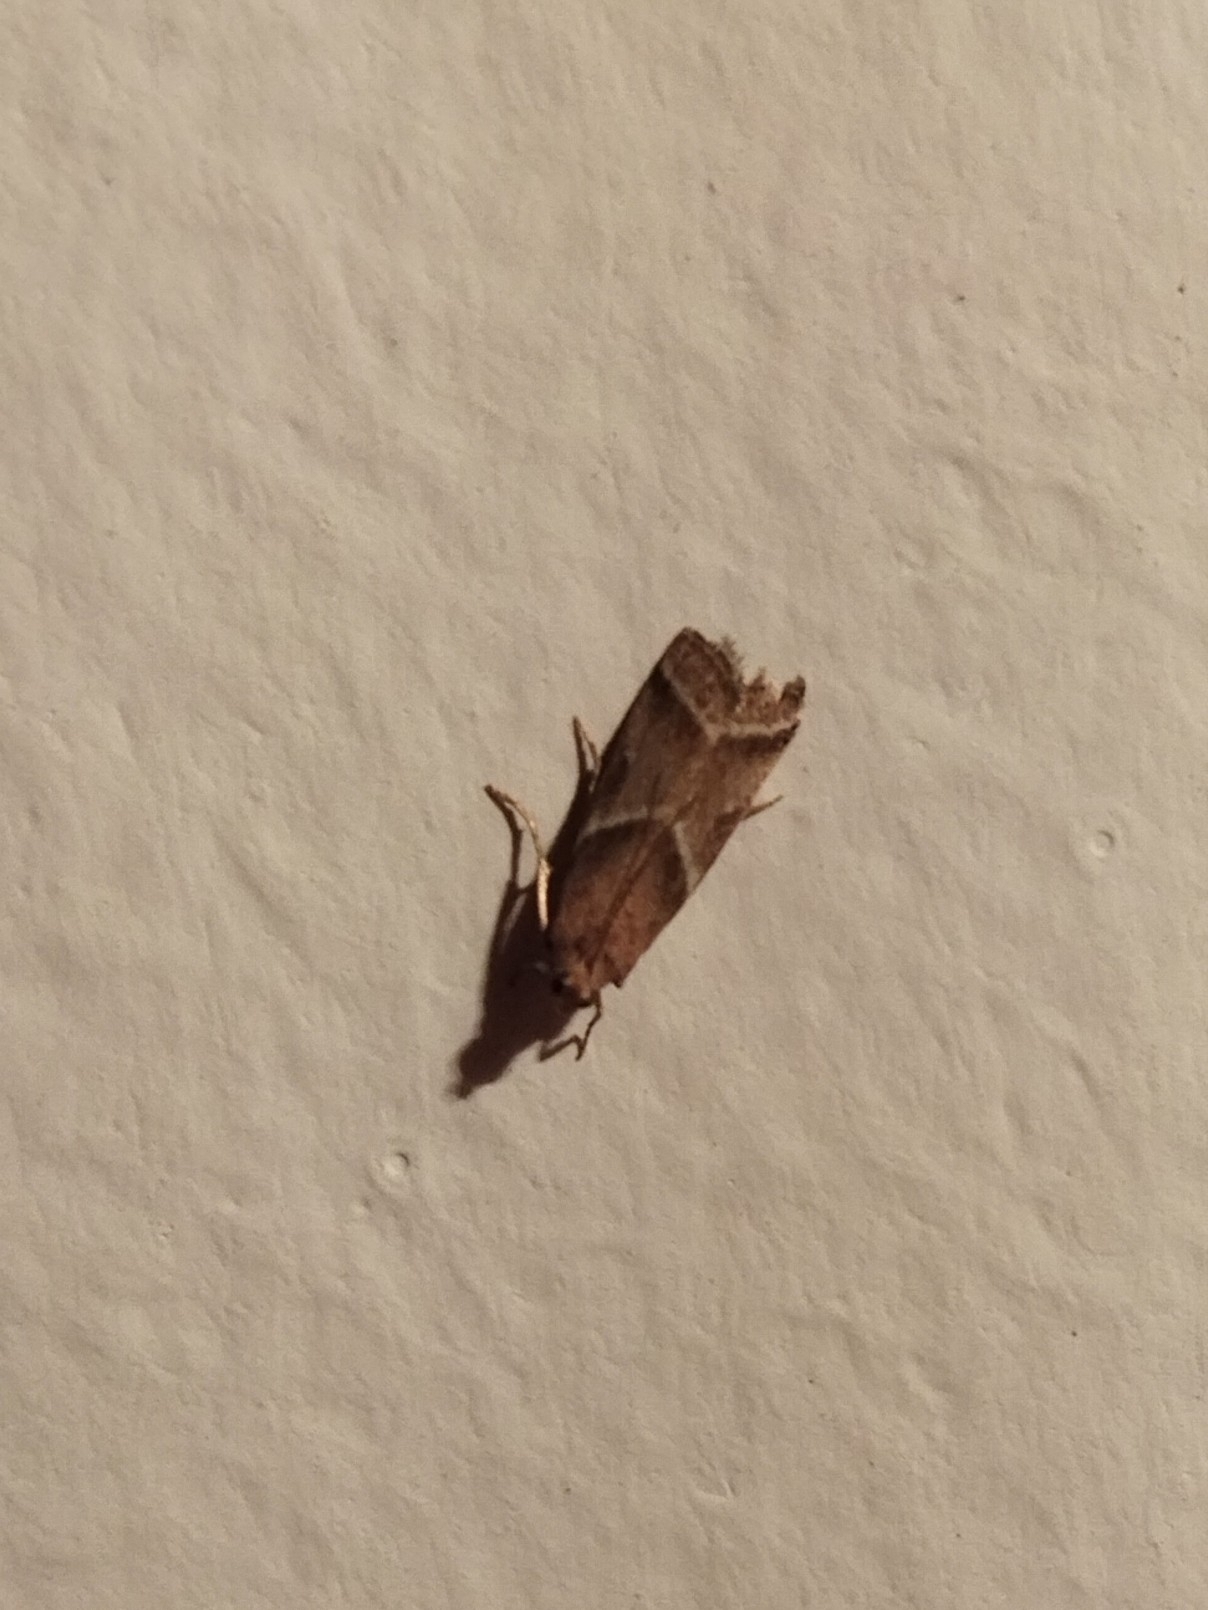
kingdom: Animalia
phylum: Arthropoda
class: Insecta
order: Lepidoptera
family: Pyralidae
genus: Nyctegretis
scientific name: Nyctegretis lineana
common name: Agate knot-horn
